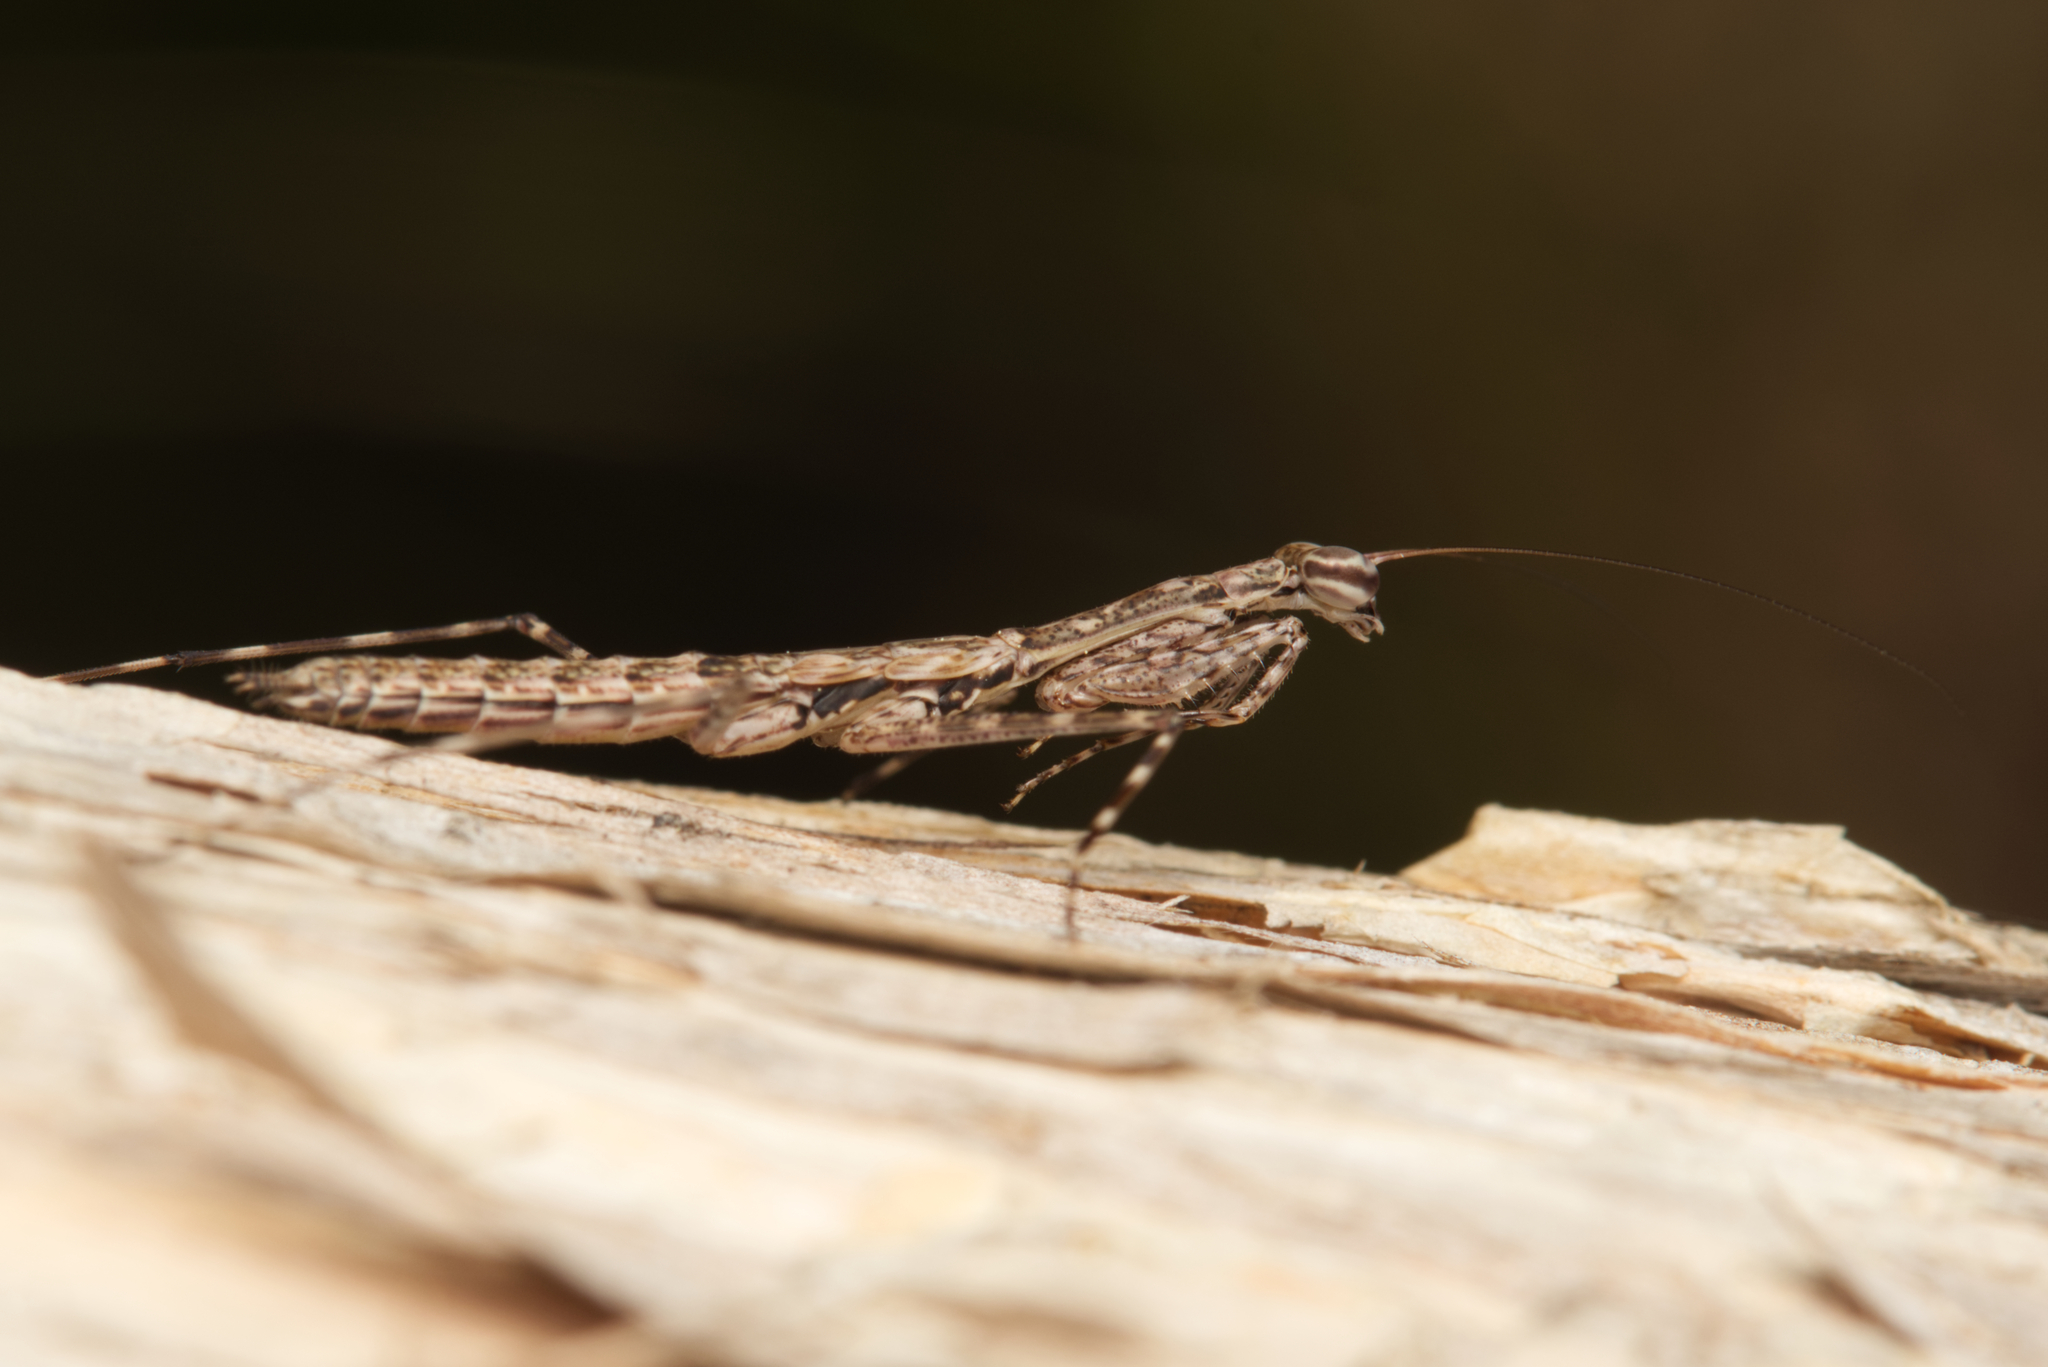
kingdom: Animalia
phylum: Arthropoda
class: Insecta
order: Mantodea
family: Nanomantidae
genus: Ciulfina
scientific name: Ciulfina baldersoni
